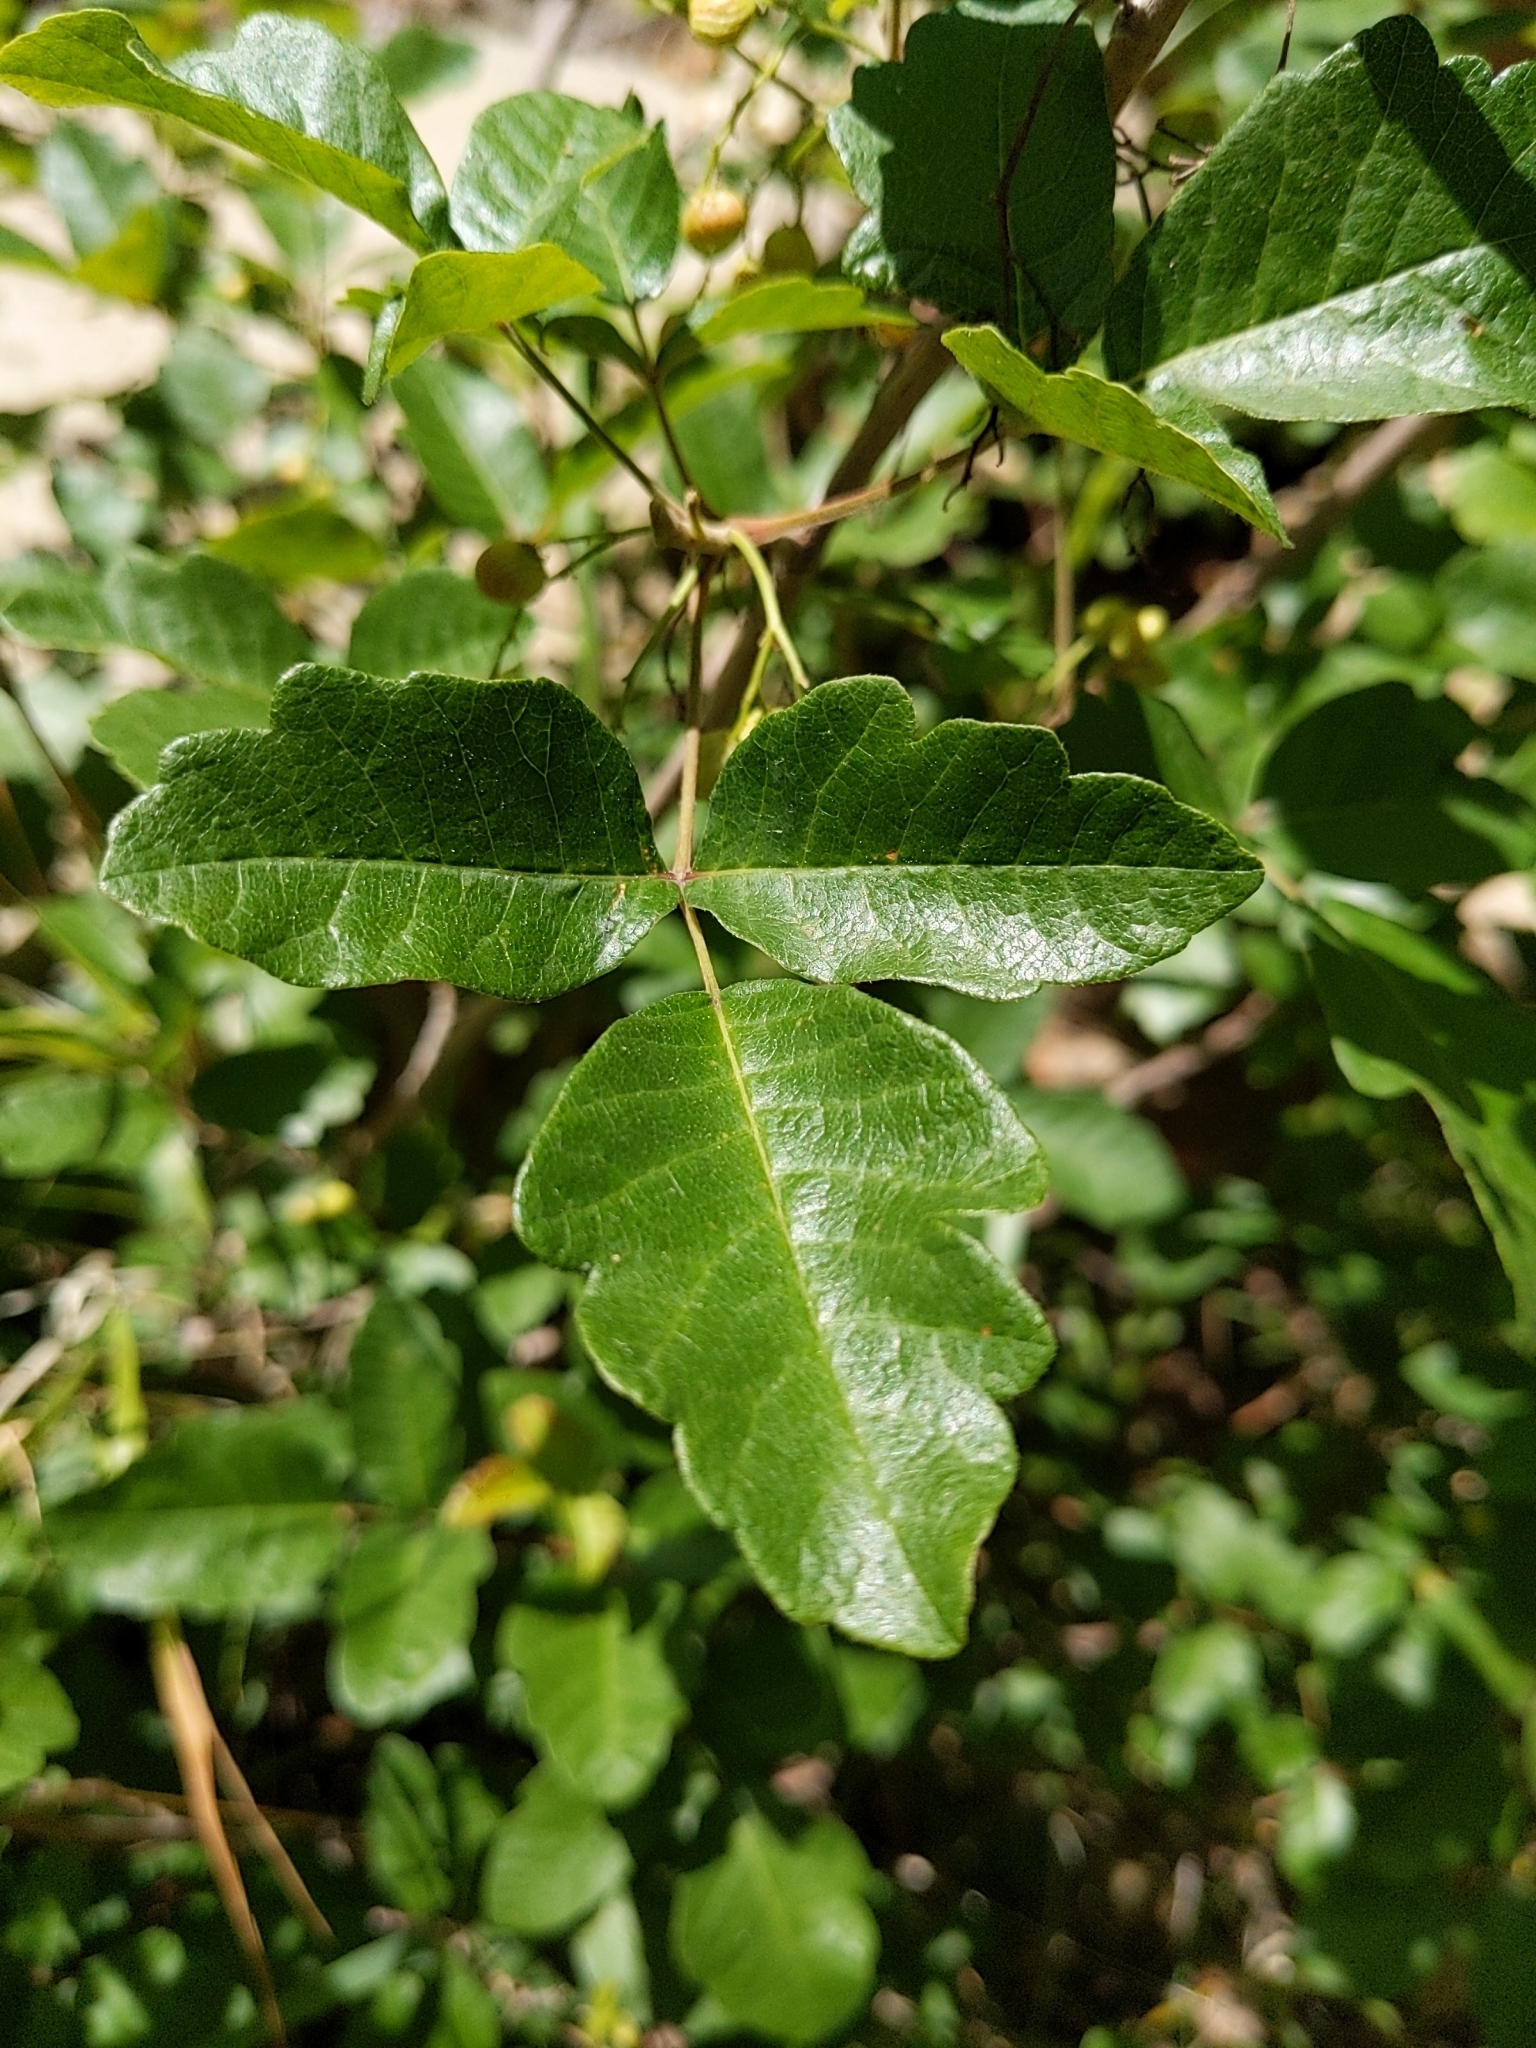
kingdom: Plantae
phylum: Tracheophyta
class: Magnoliopsida
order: Sapindales
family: Anacardiaceae
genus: Toxicodendron
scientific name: Toxicodendron diversilobum
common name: Pacific poison-oak
